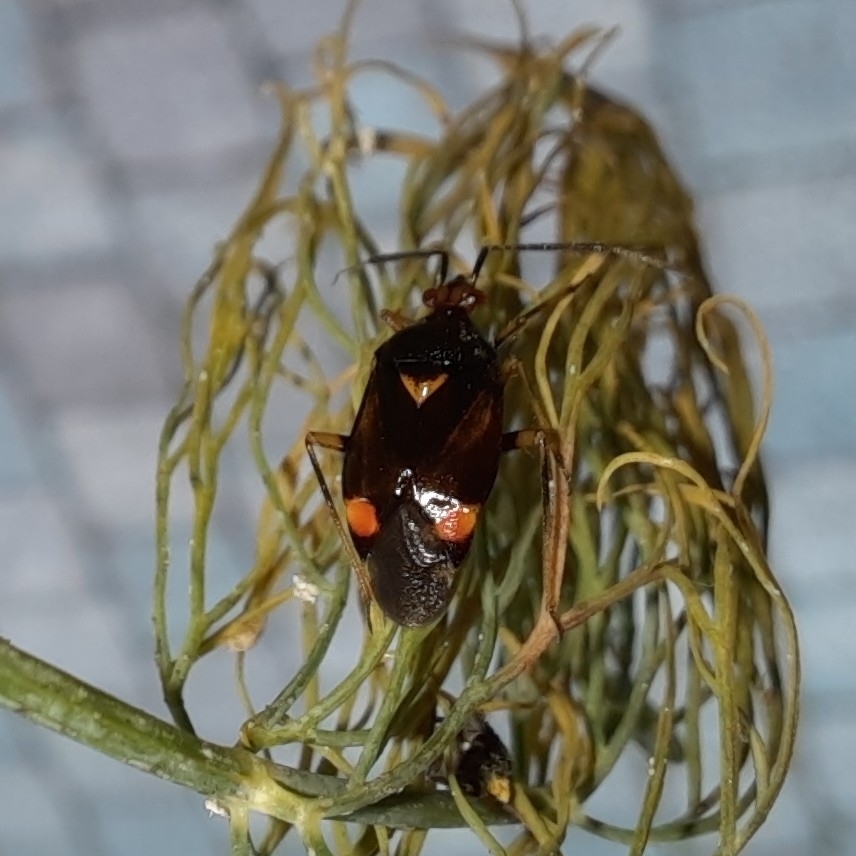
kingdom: Animalia
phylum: Arthropoda
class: Insecta
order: Hemiptera
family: Miridae
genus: Deraeocoris
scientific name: Deraeocoris ruber
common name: Plant bug
